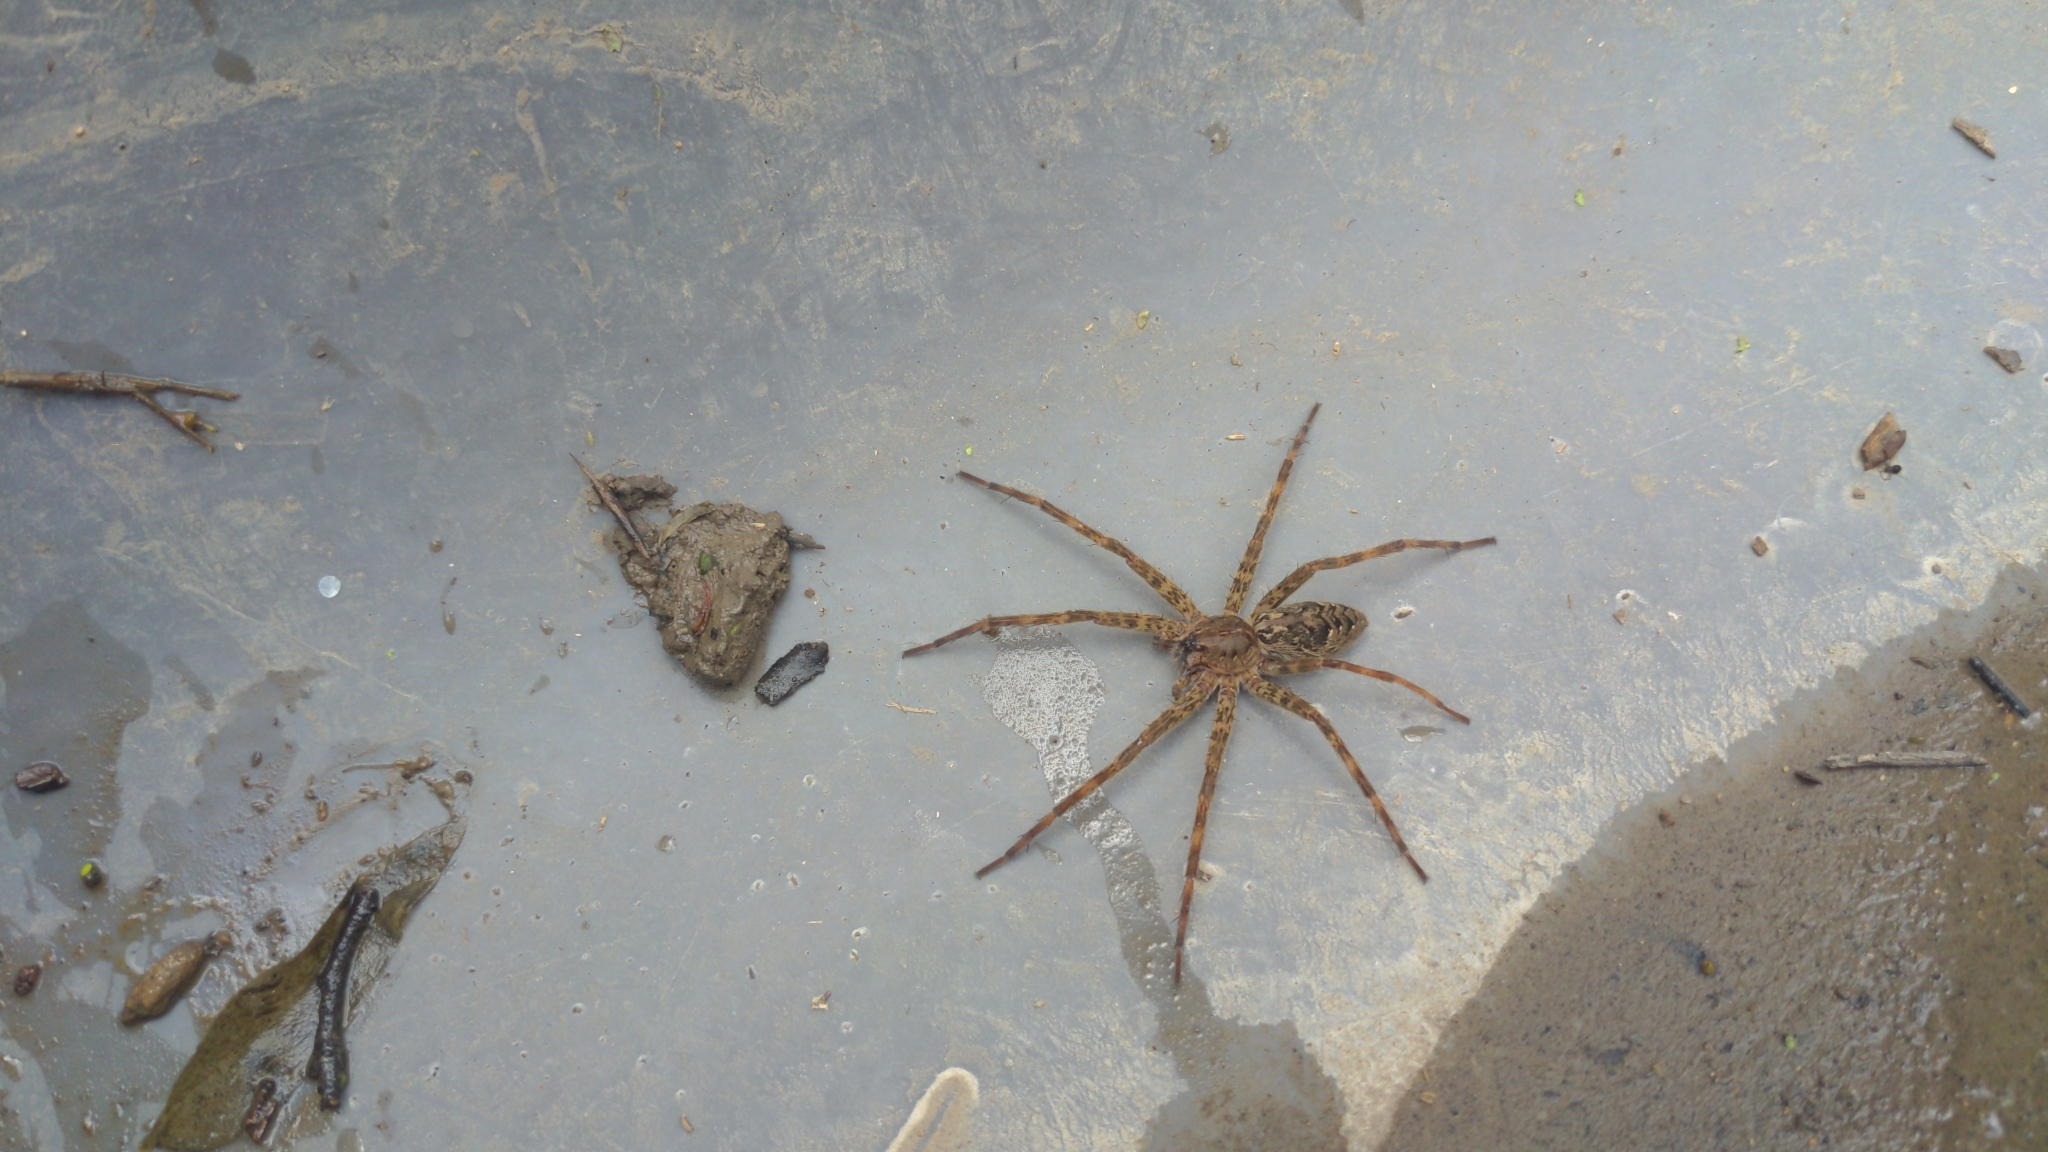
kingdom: Animalia
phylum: Arthropoda
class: Arachnida
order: Araneae
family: Pisauridae
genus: Dolomedes
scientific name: Dolomedes tenebrosus
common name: Dark fishing spider
